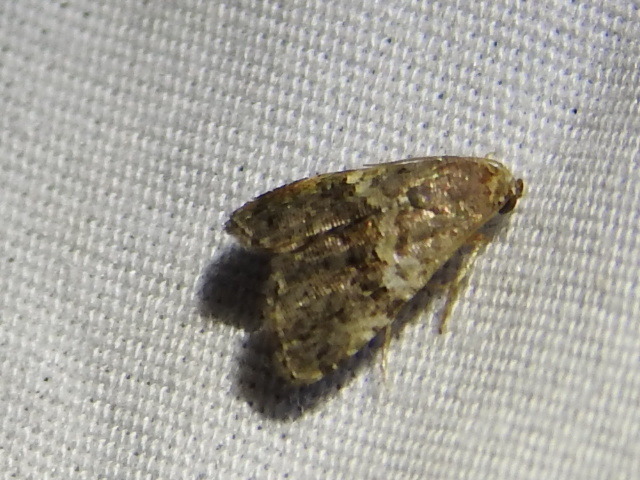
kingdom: Animalia
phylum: Arthropoda
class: Insecta
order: Lepidoptera
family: Noctuidae
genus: Tripudia
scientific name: Tripudia luxuriosa
